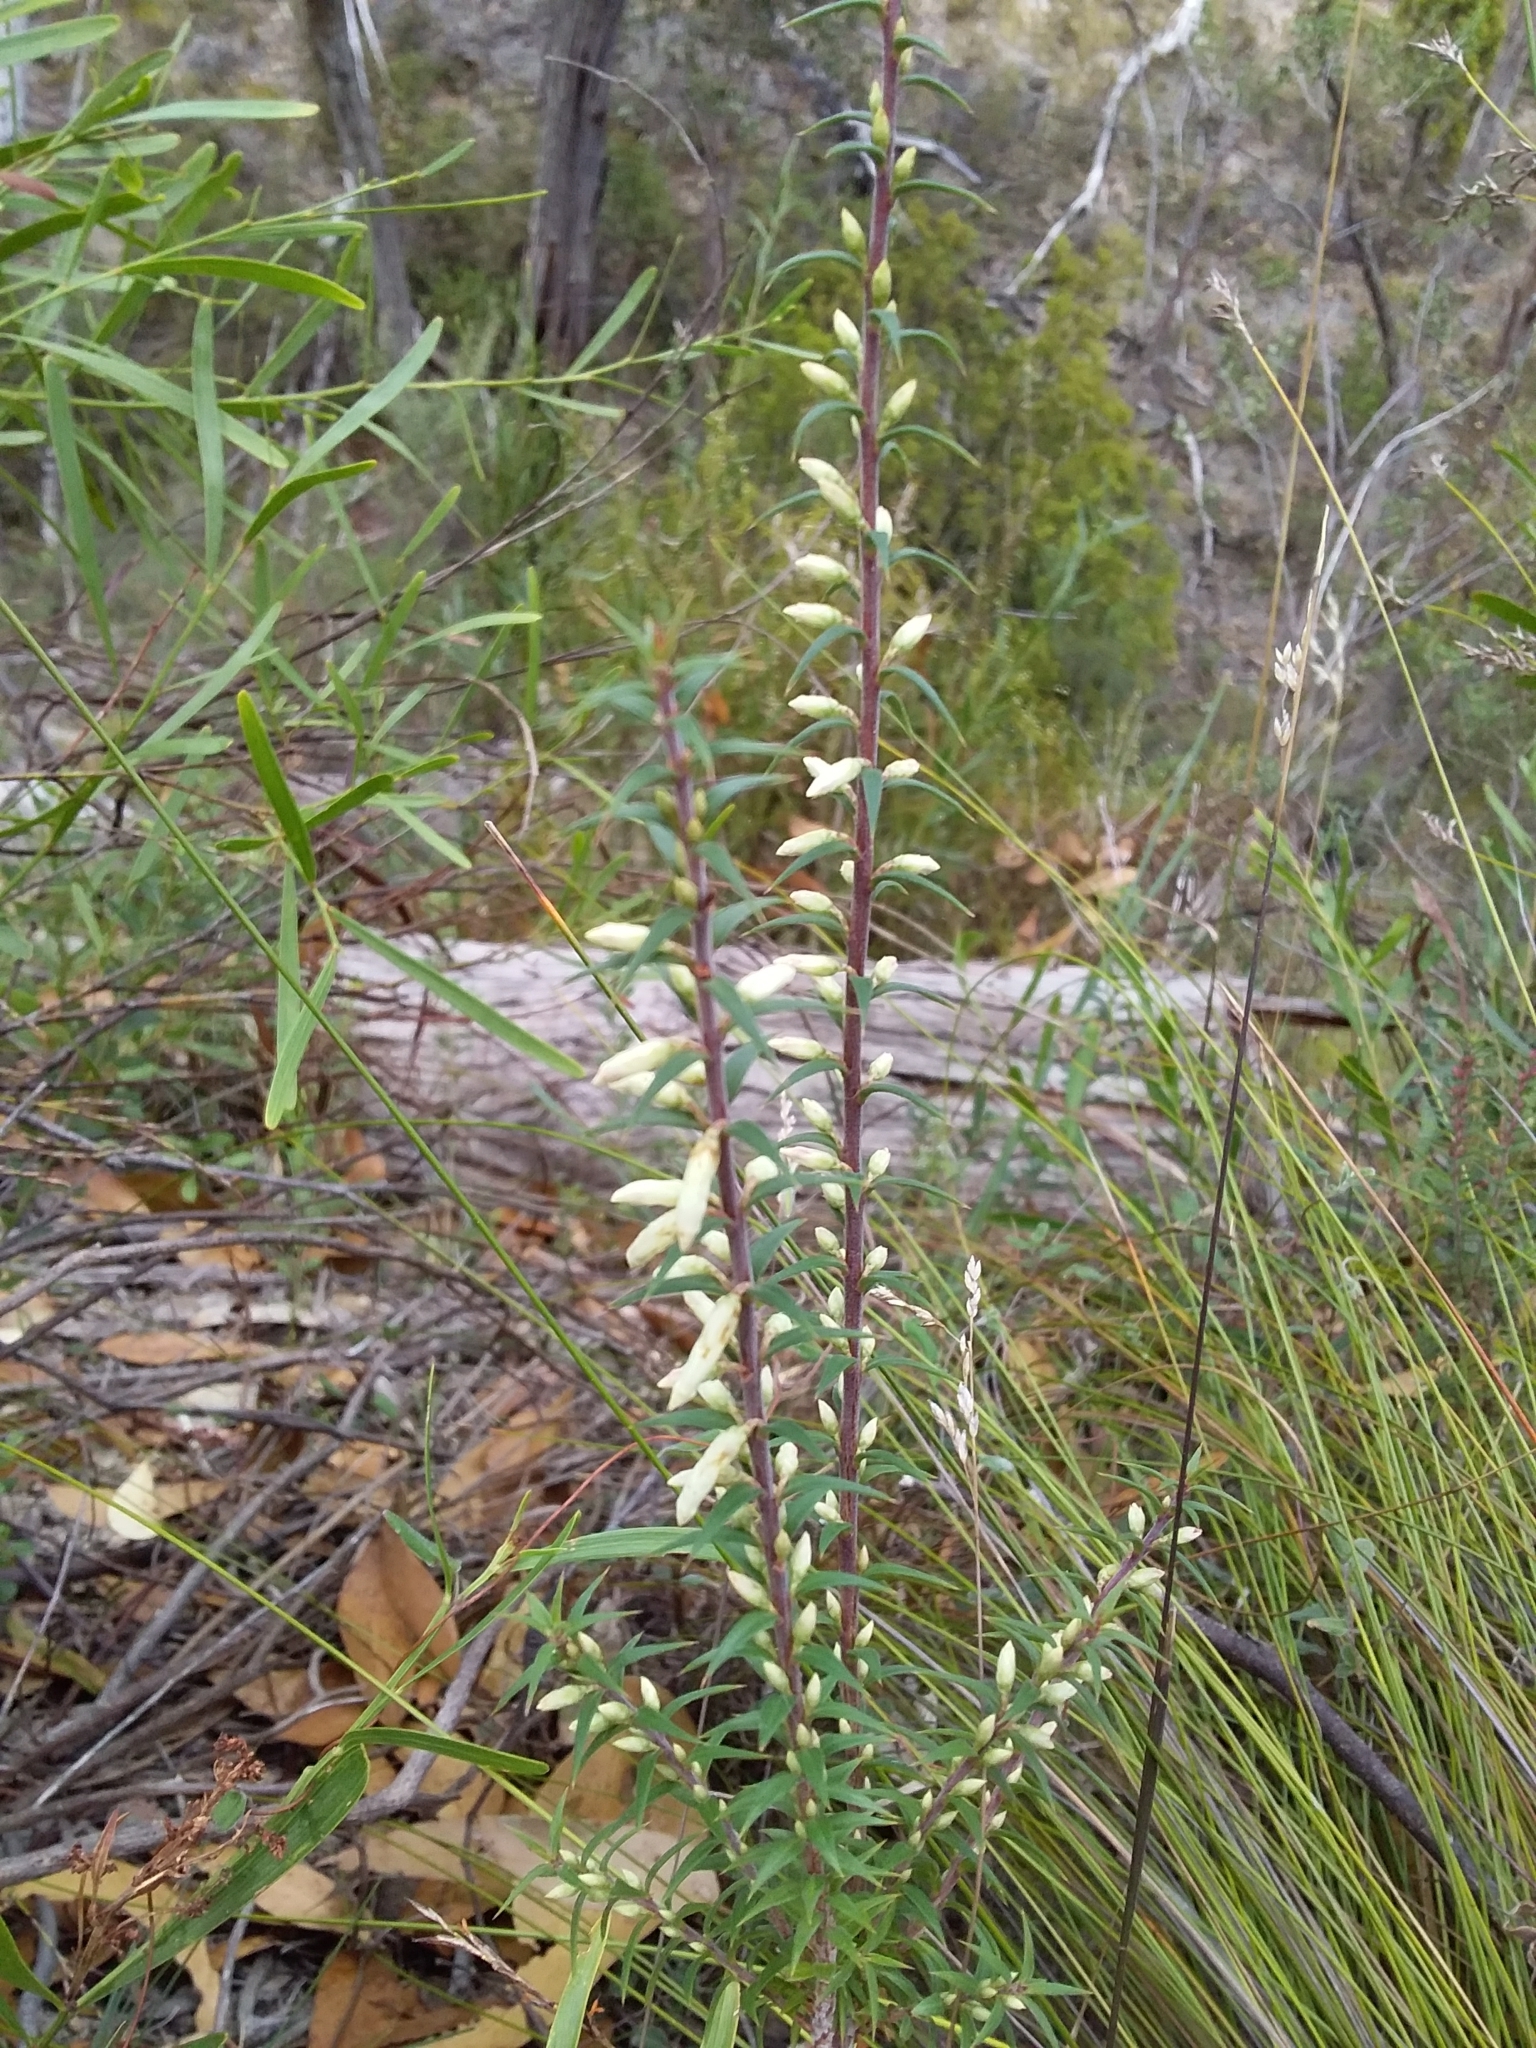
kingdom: Plantae
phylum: Tracheophyta
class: Magnoliopsida
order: Ericales
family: Ericaceae
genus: Epacris
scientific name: Epacris impressa
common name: Common-heath
